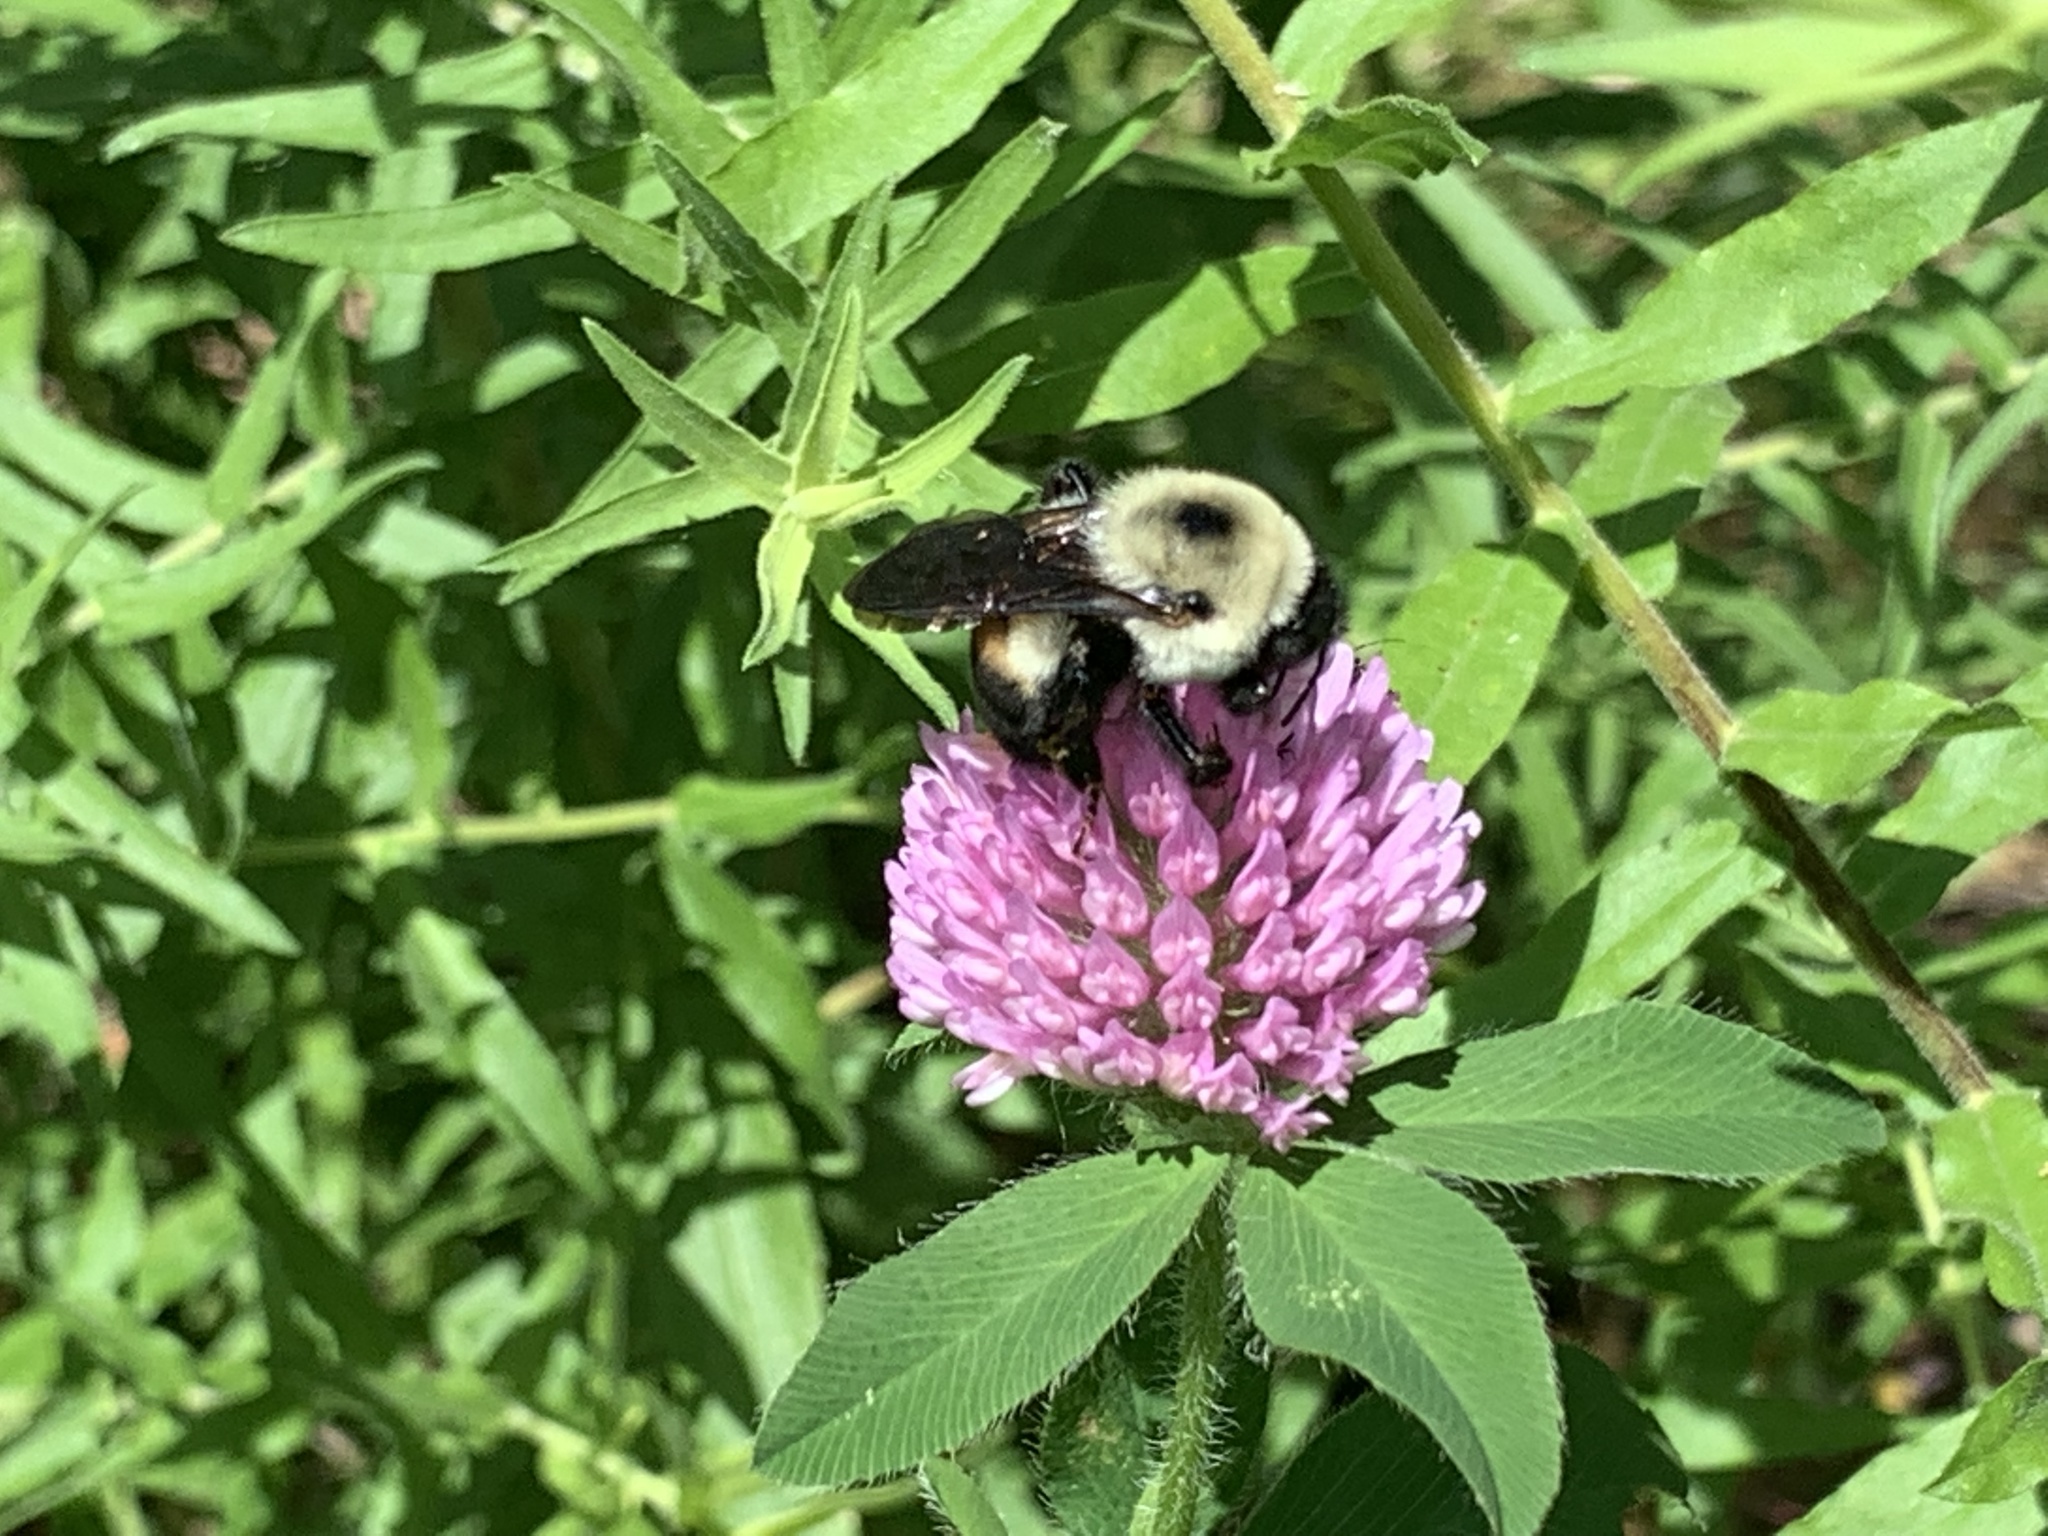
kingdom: Animalia
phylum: Arthropoda
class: Insecta
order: Hymenoptera
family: Apidae
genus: Bombus
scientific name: Bombus griseocollis
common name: Brown-belted bumble bee
